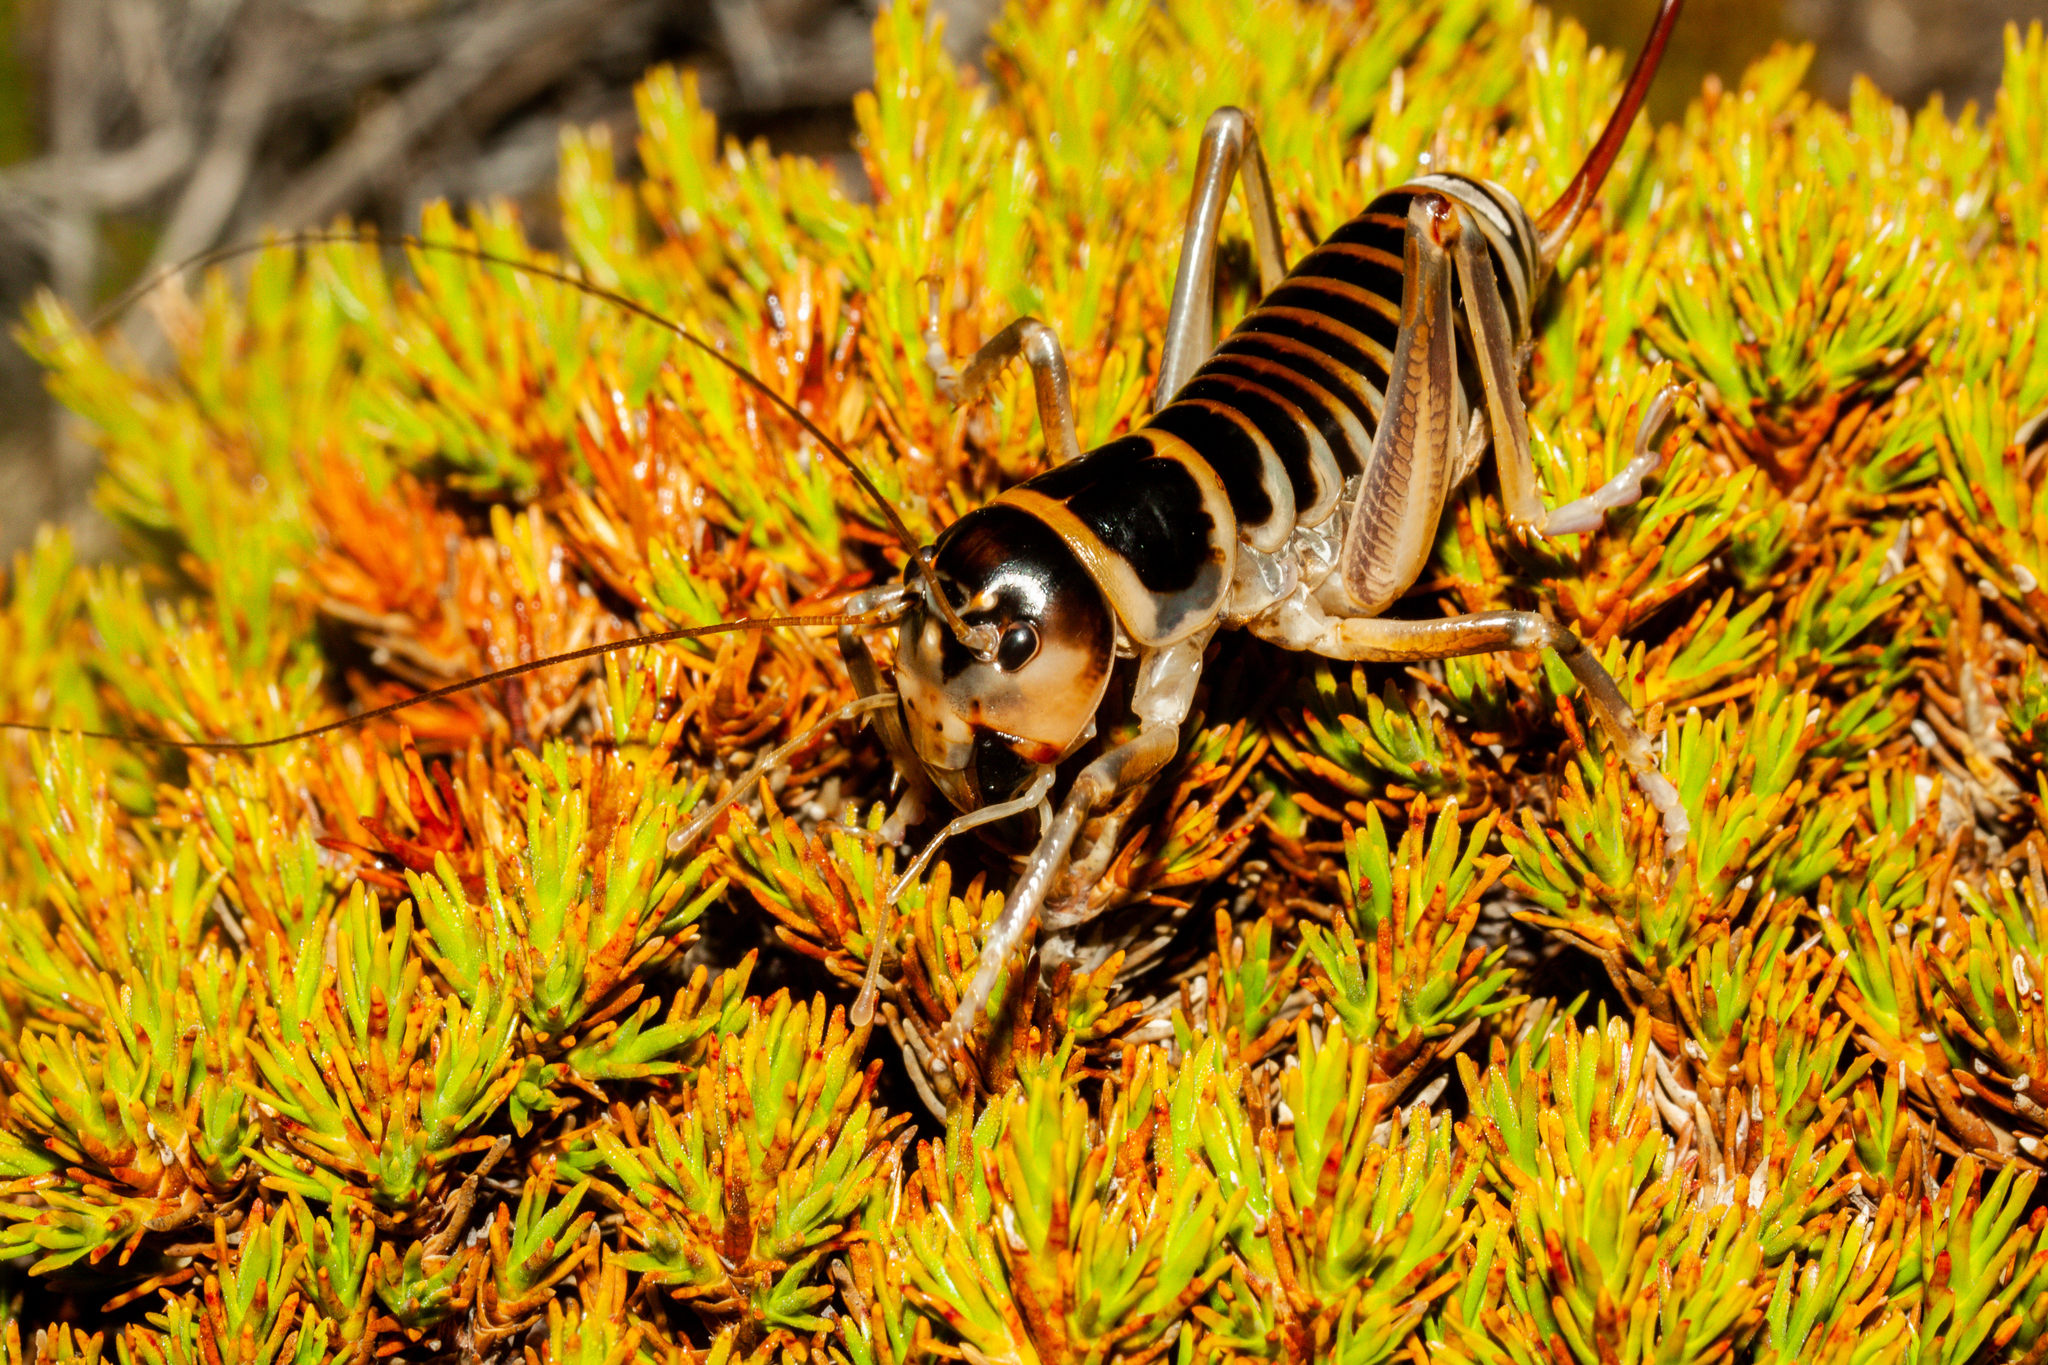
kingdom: Animalia
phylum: Arthropoda
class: Insecta
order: Orthoptera
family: Anostostomatidae
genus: Hemiandrus
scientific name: Hemiandrus focalis
